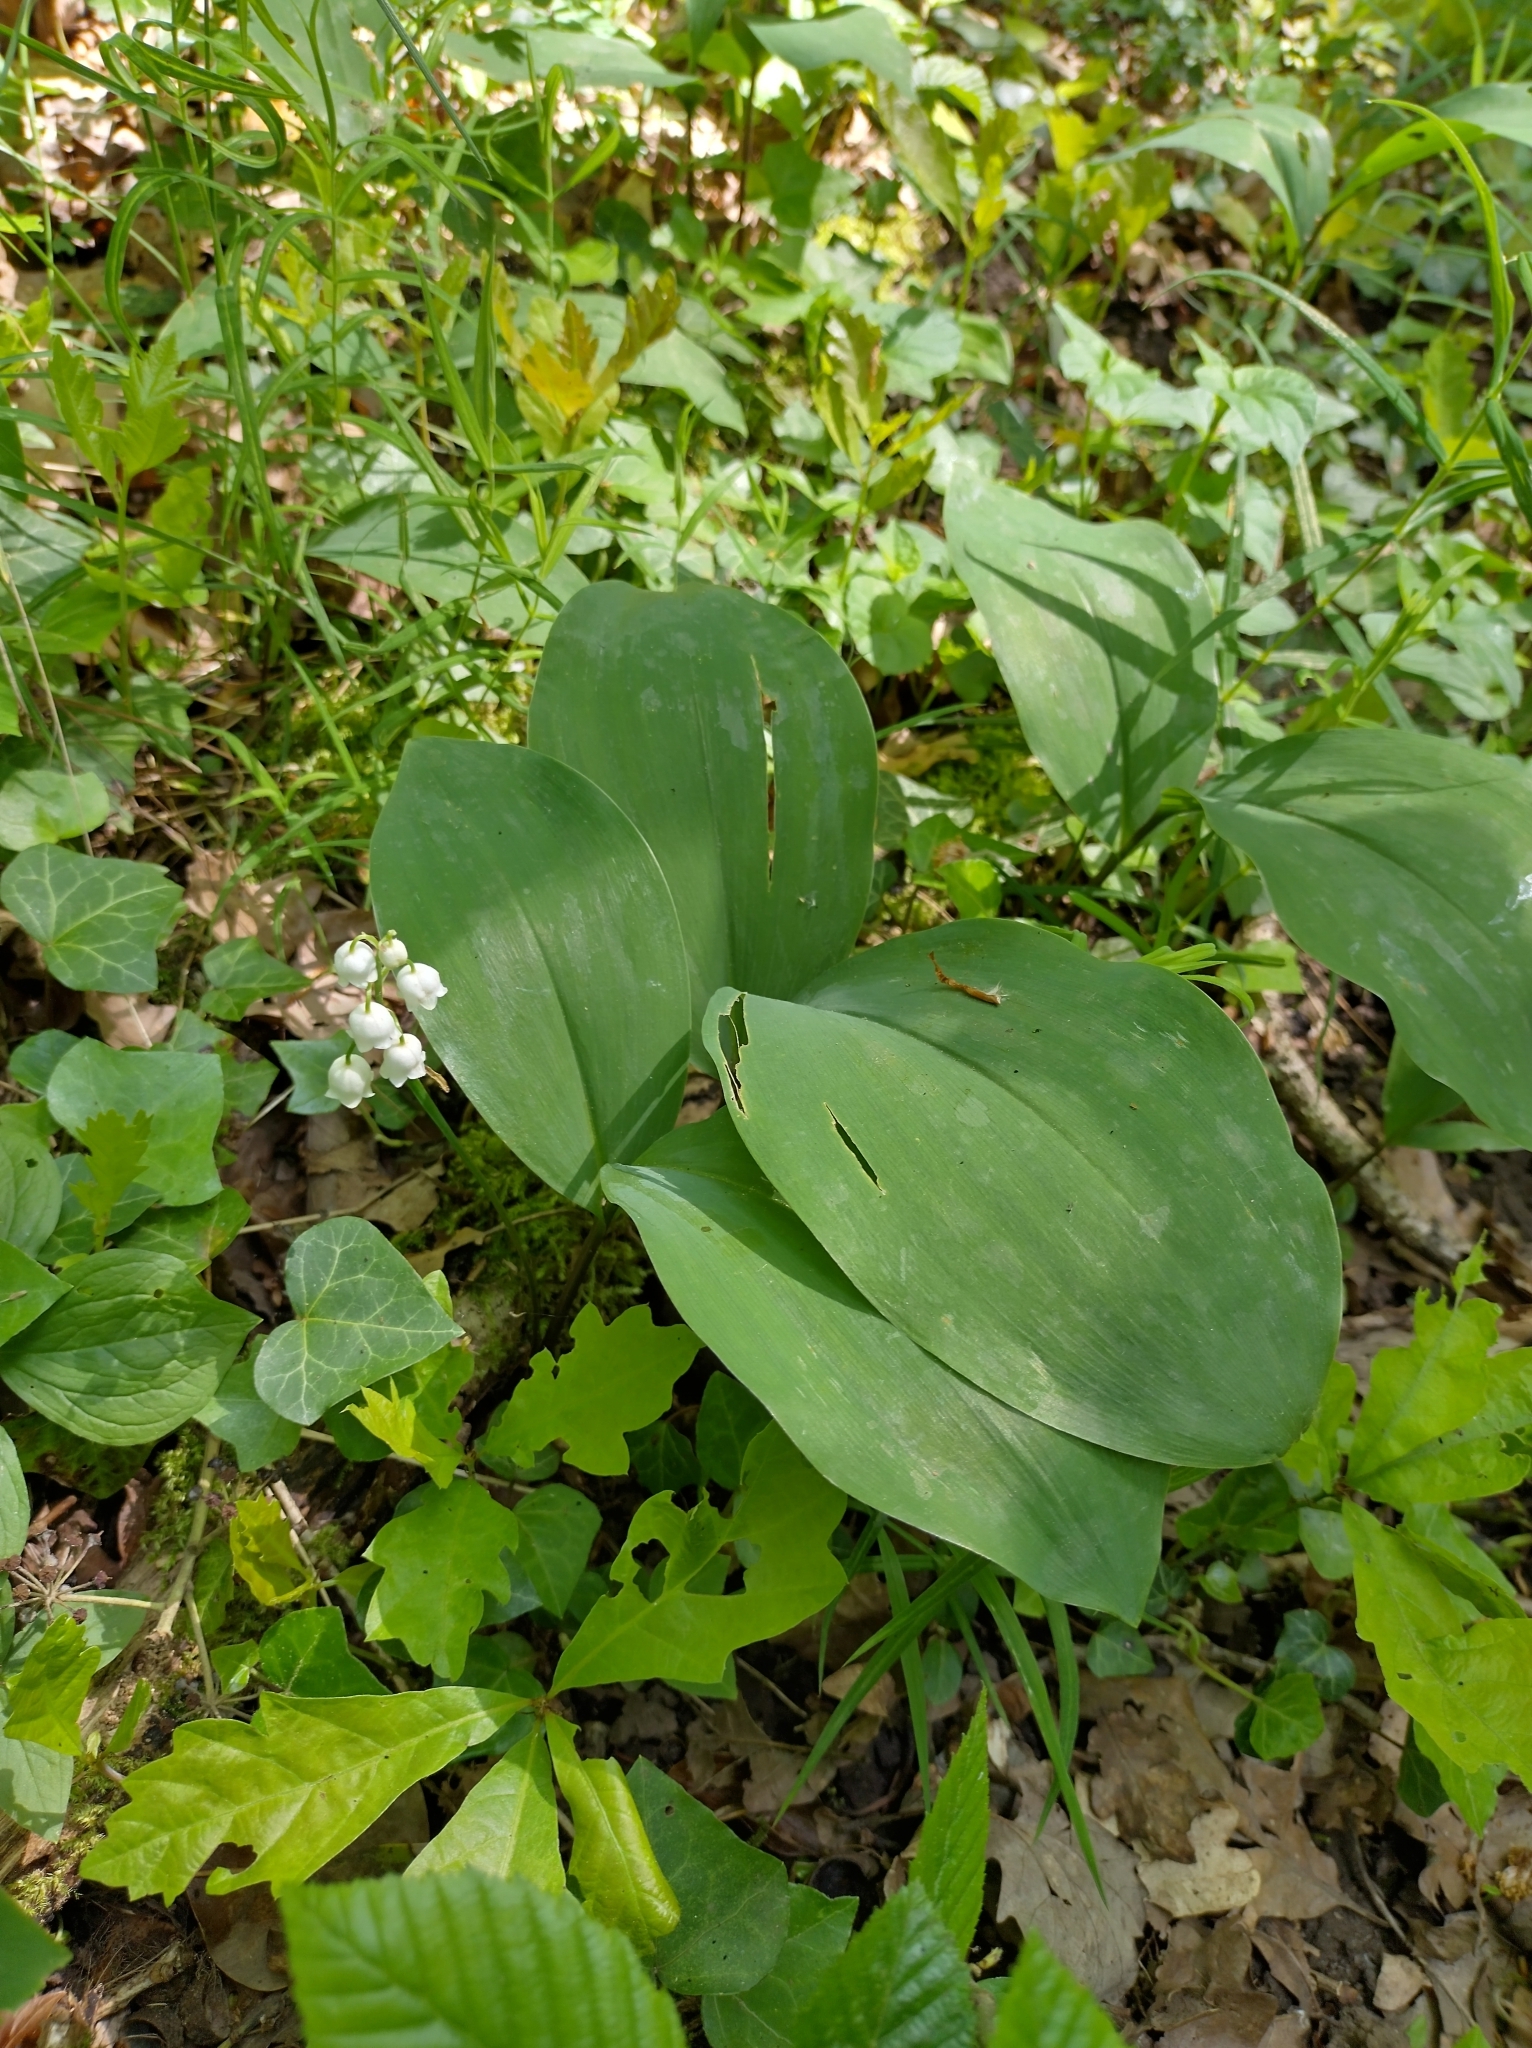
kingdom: Plantae
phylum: Tracheophyta
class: Liliopsida
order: Asparagales
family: Asparagaceae
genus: Convallaria
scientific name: Convallaria majalis
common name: Lily-of-the-valley
